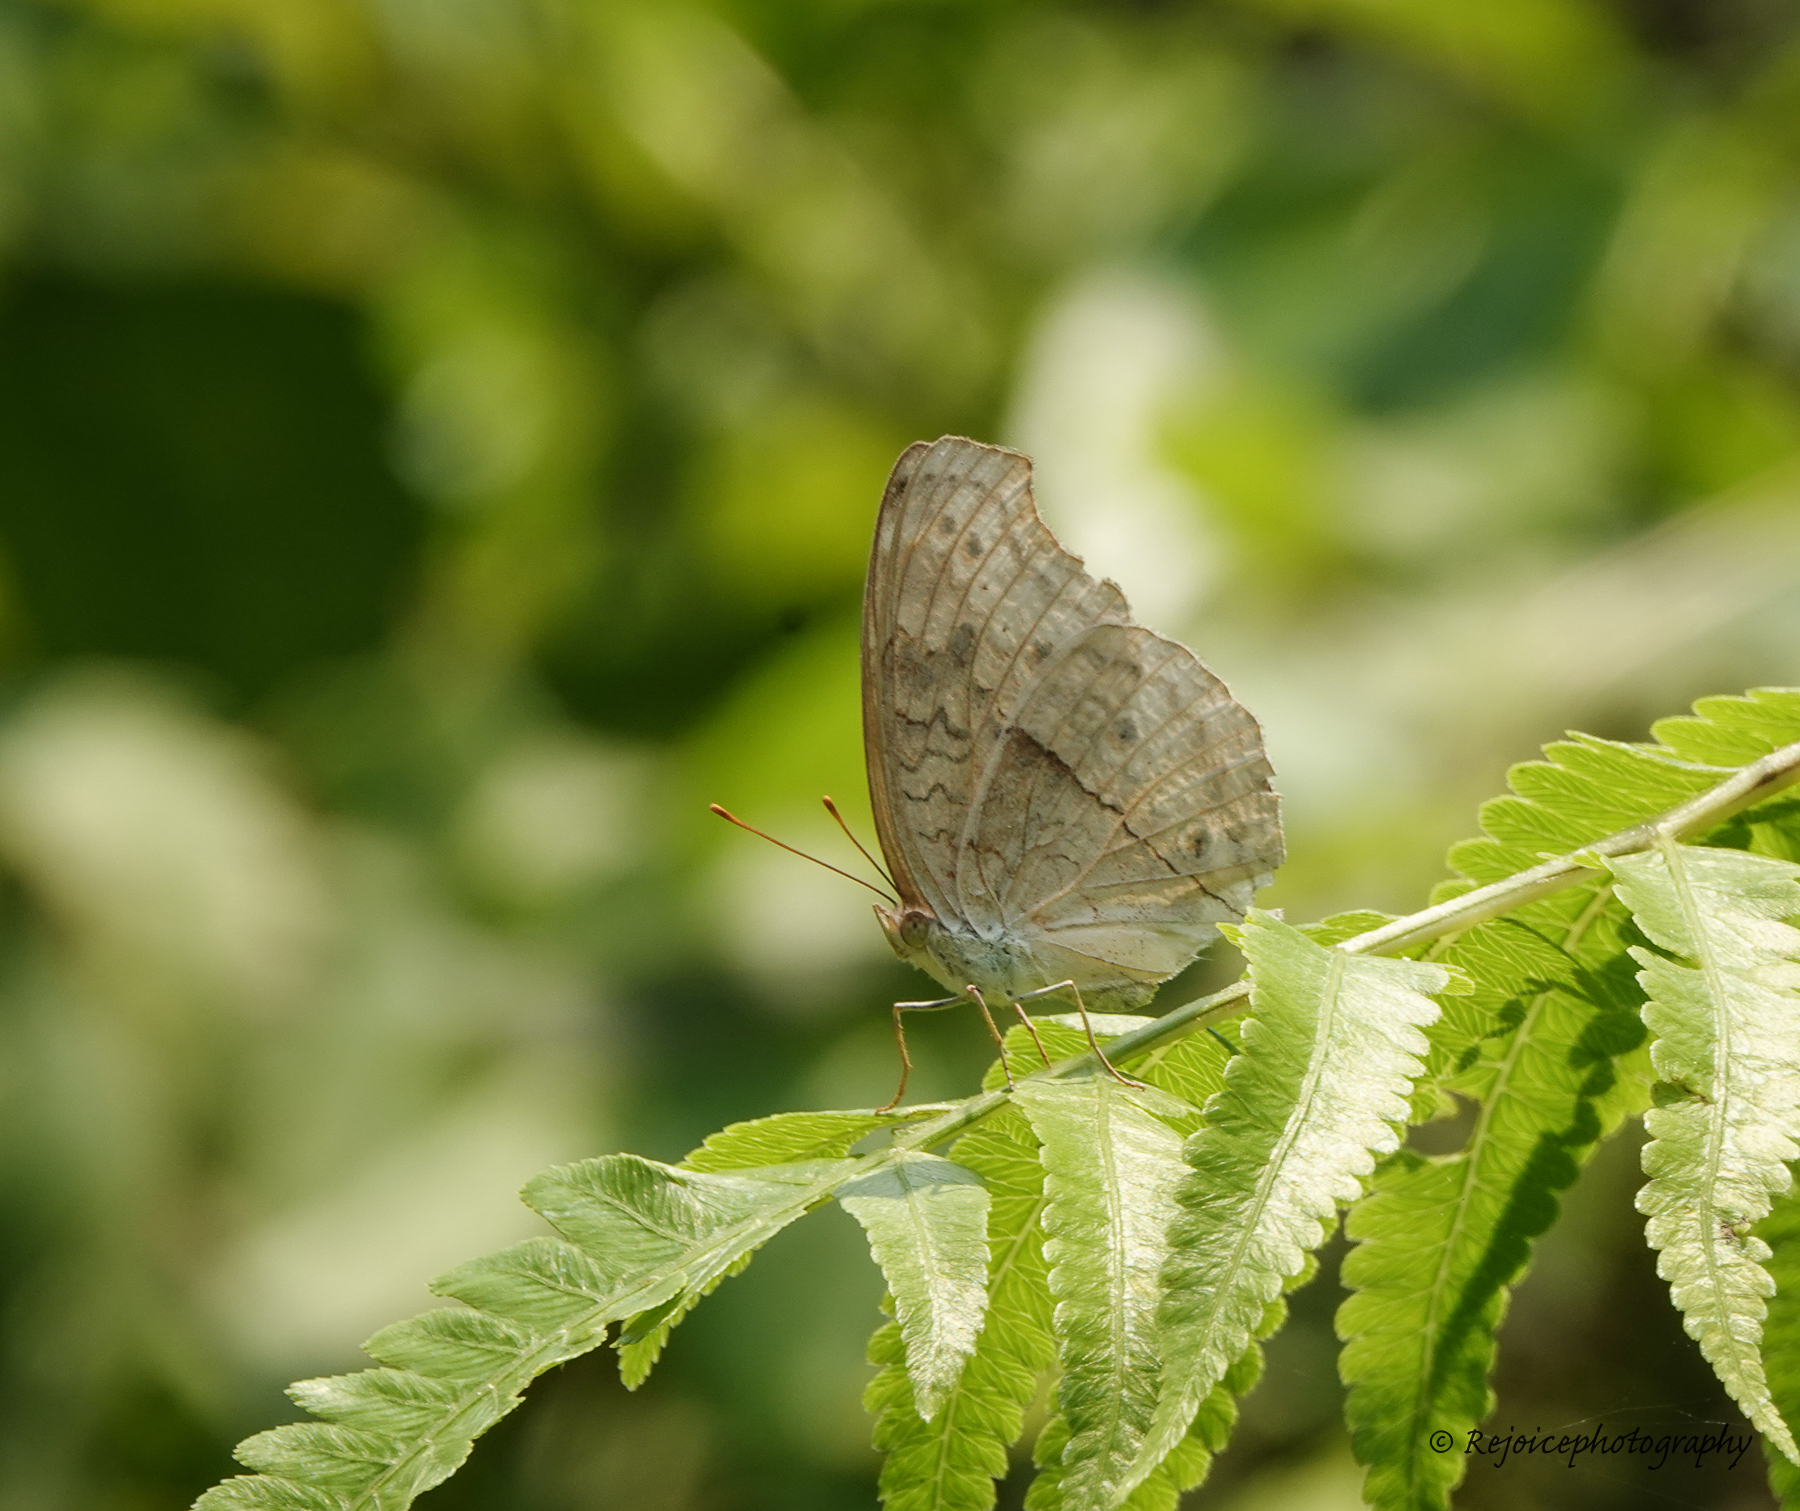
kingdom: Animalia
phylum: Arthropoda
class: Insecta
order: Lepidoptera
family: Nymphalidae
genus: Junonia
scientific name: Junonia atlites
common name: Grey pansy
